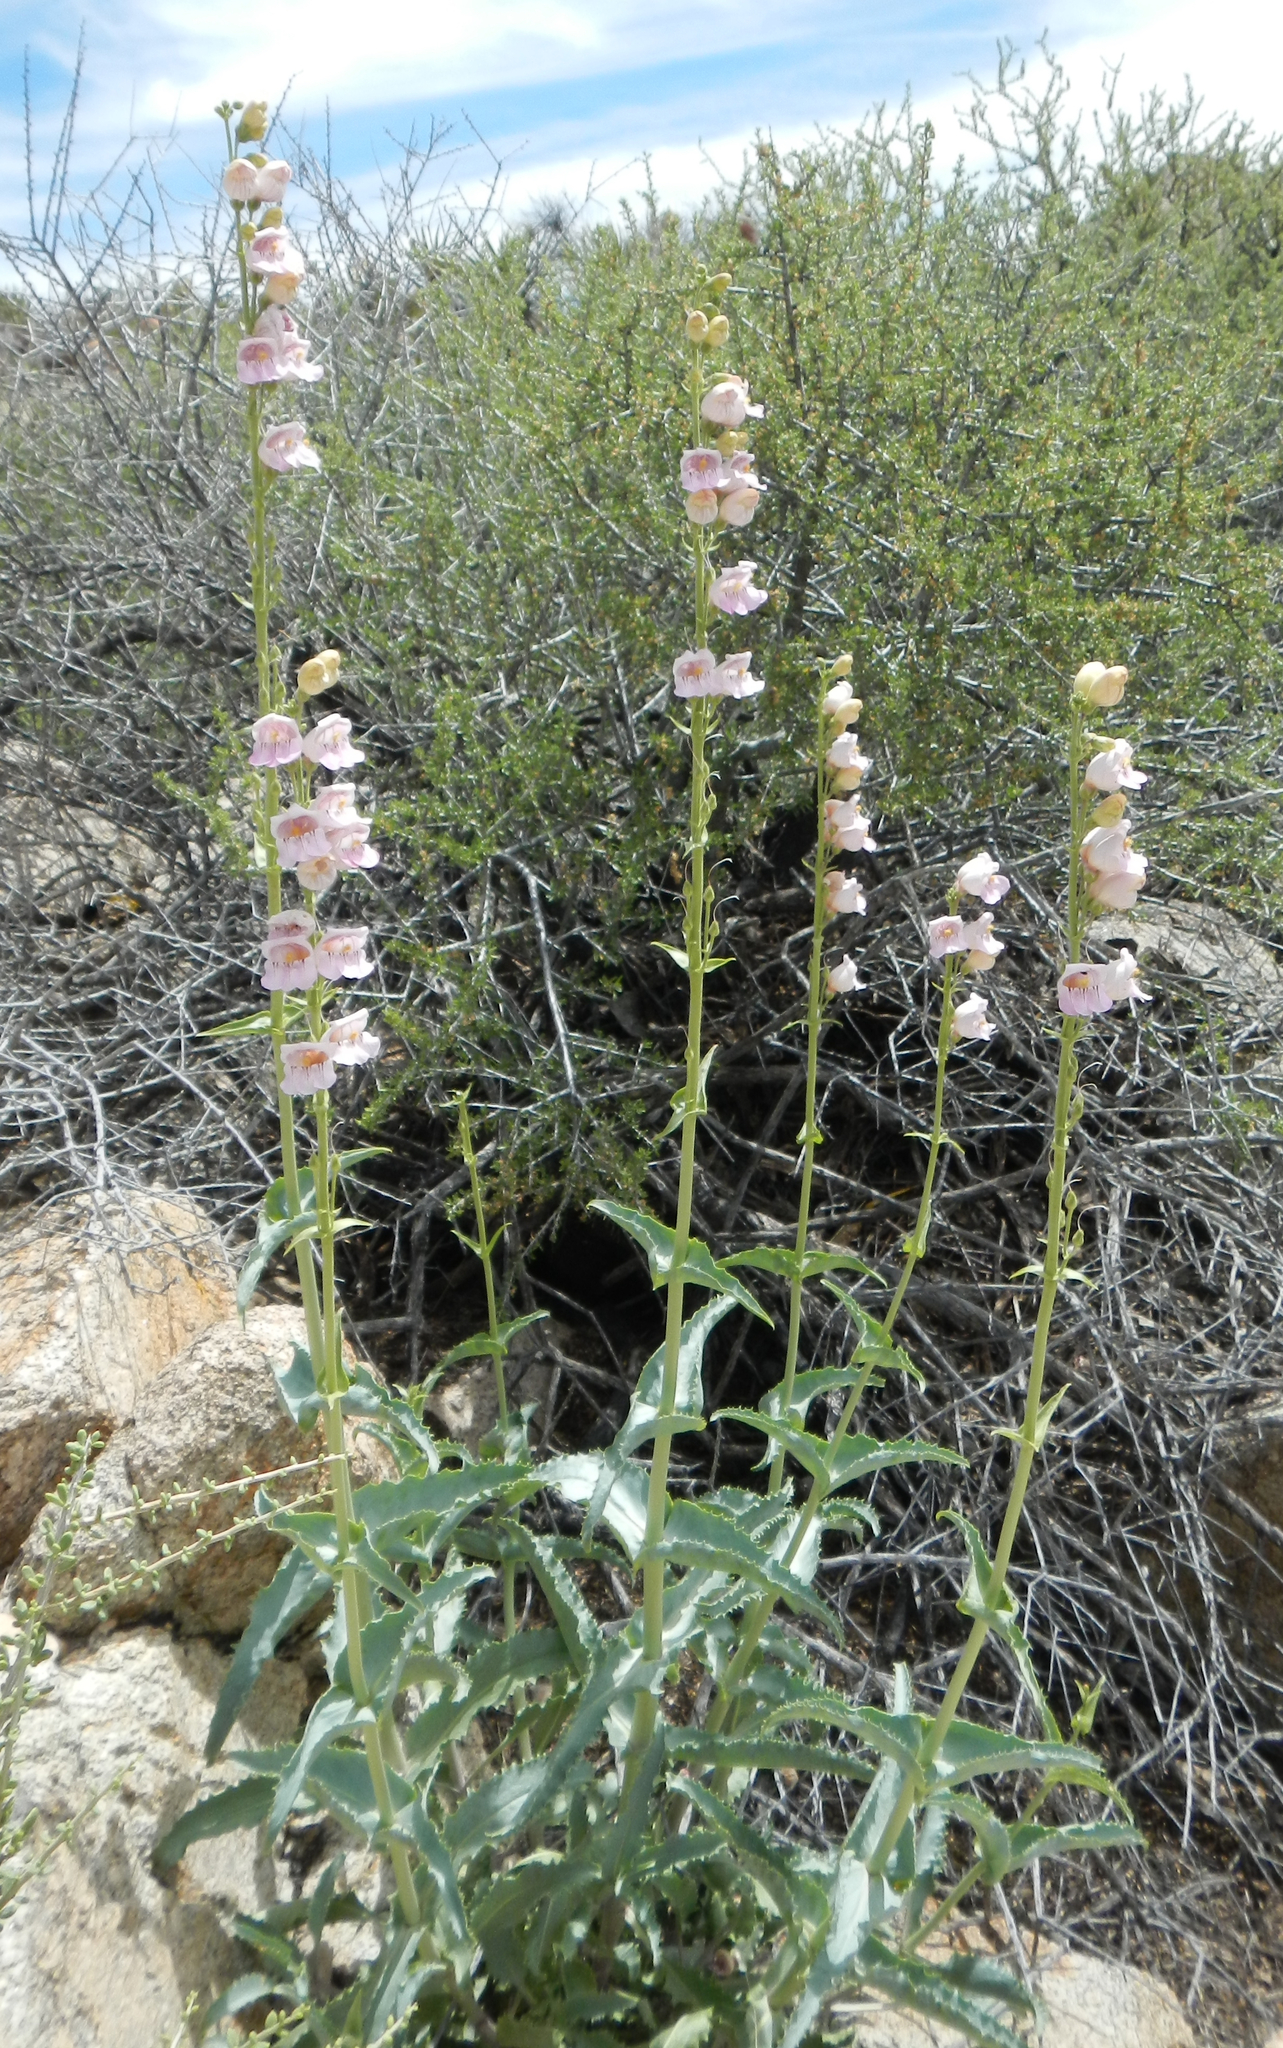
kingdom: Plantae
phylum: Tracheophyta
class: Magnoliopsida
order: Lamiales
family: Plantaginaceae
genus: Penstemon
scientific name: Penstemon palmeri
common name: Palmer penstemon
